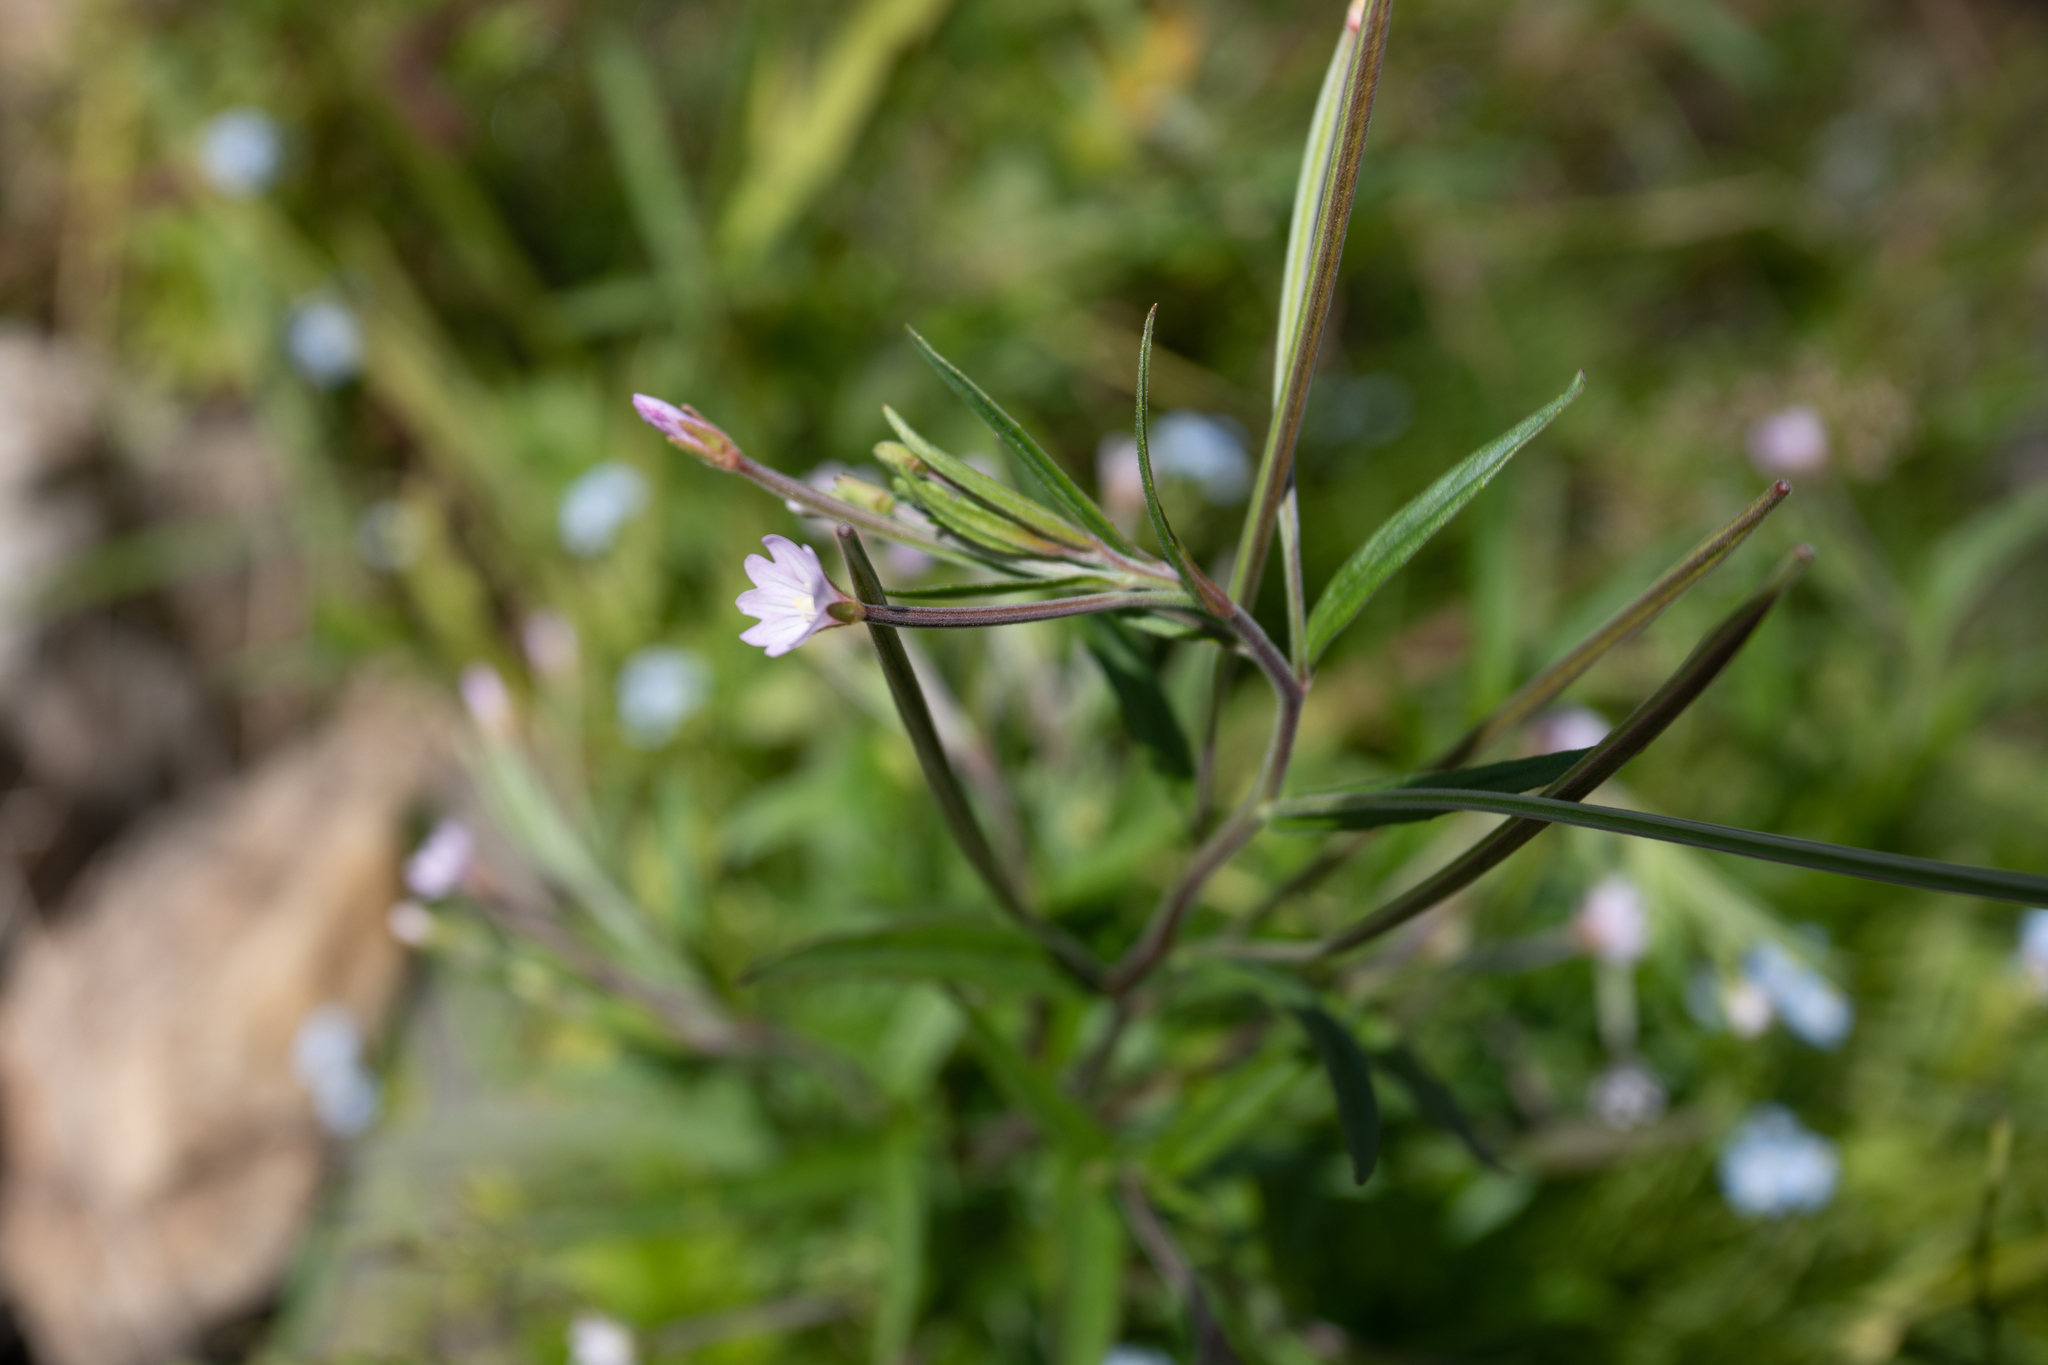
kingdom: Plantae
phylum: Tracheophyta
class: Magnoliopsida
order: Myrtales
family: Onagraceae
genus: Epilobium
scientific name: Epilobium palustre
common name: Marsh willowherb
